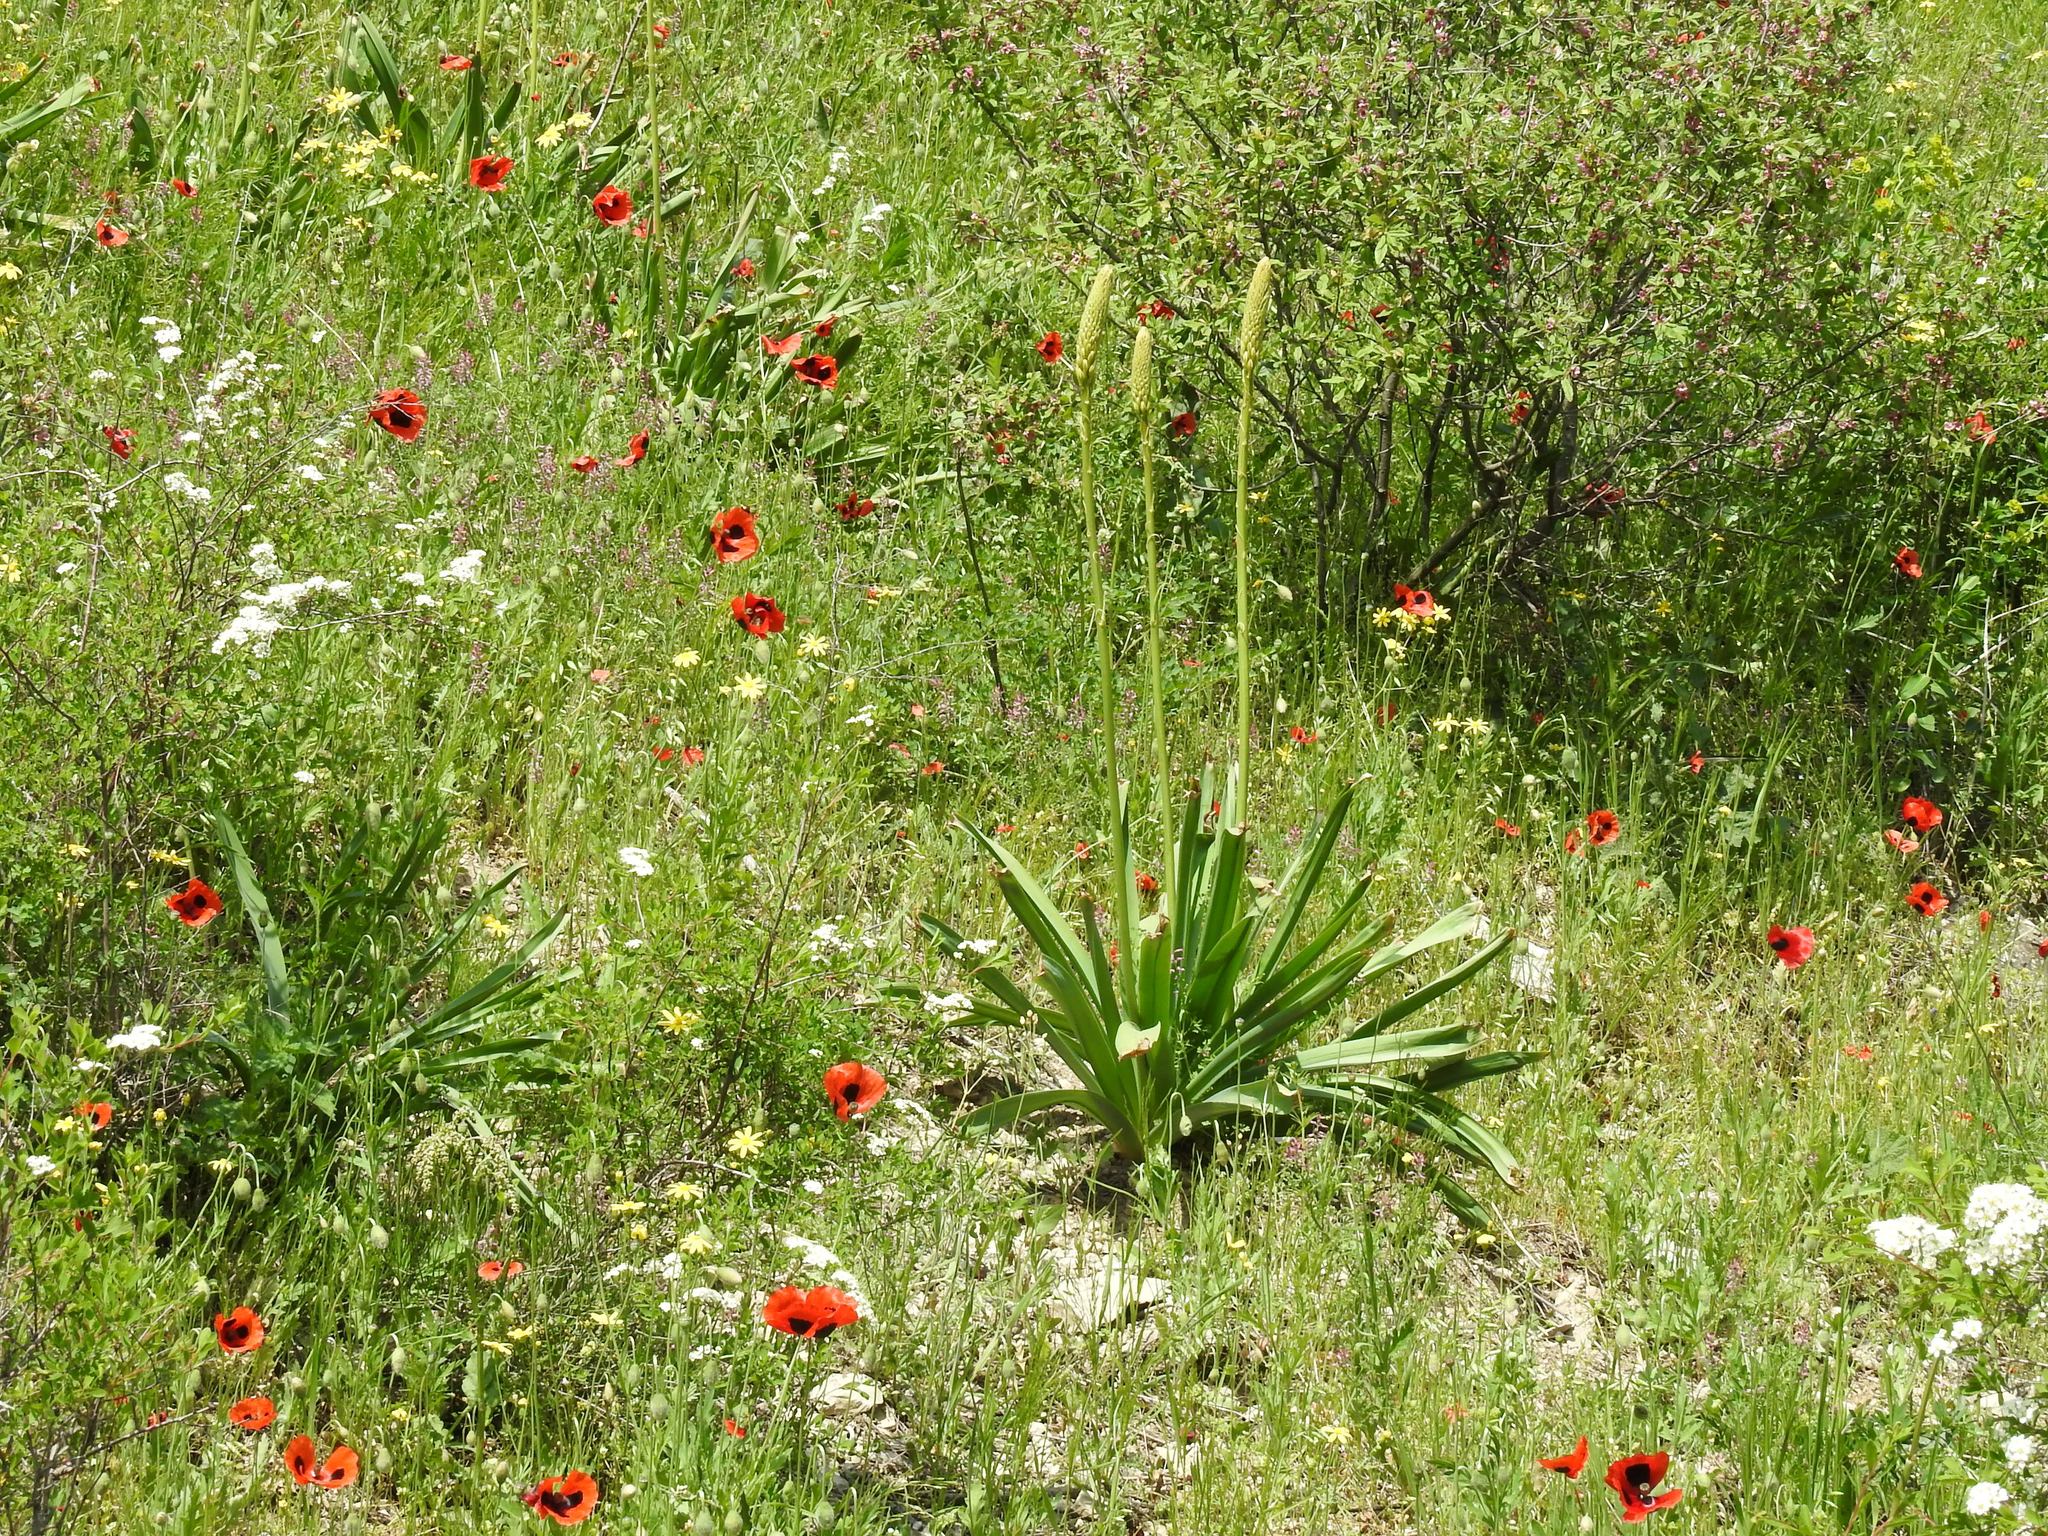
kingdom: Plantae
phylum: Tracheophyta
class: Liliopsida
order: Asparagales
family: Asphodelaceae
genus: Eremurus
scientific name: Eremurus spectabilis
